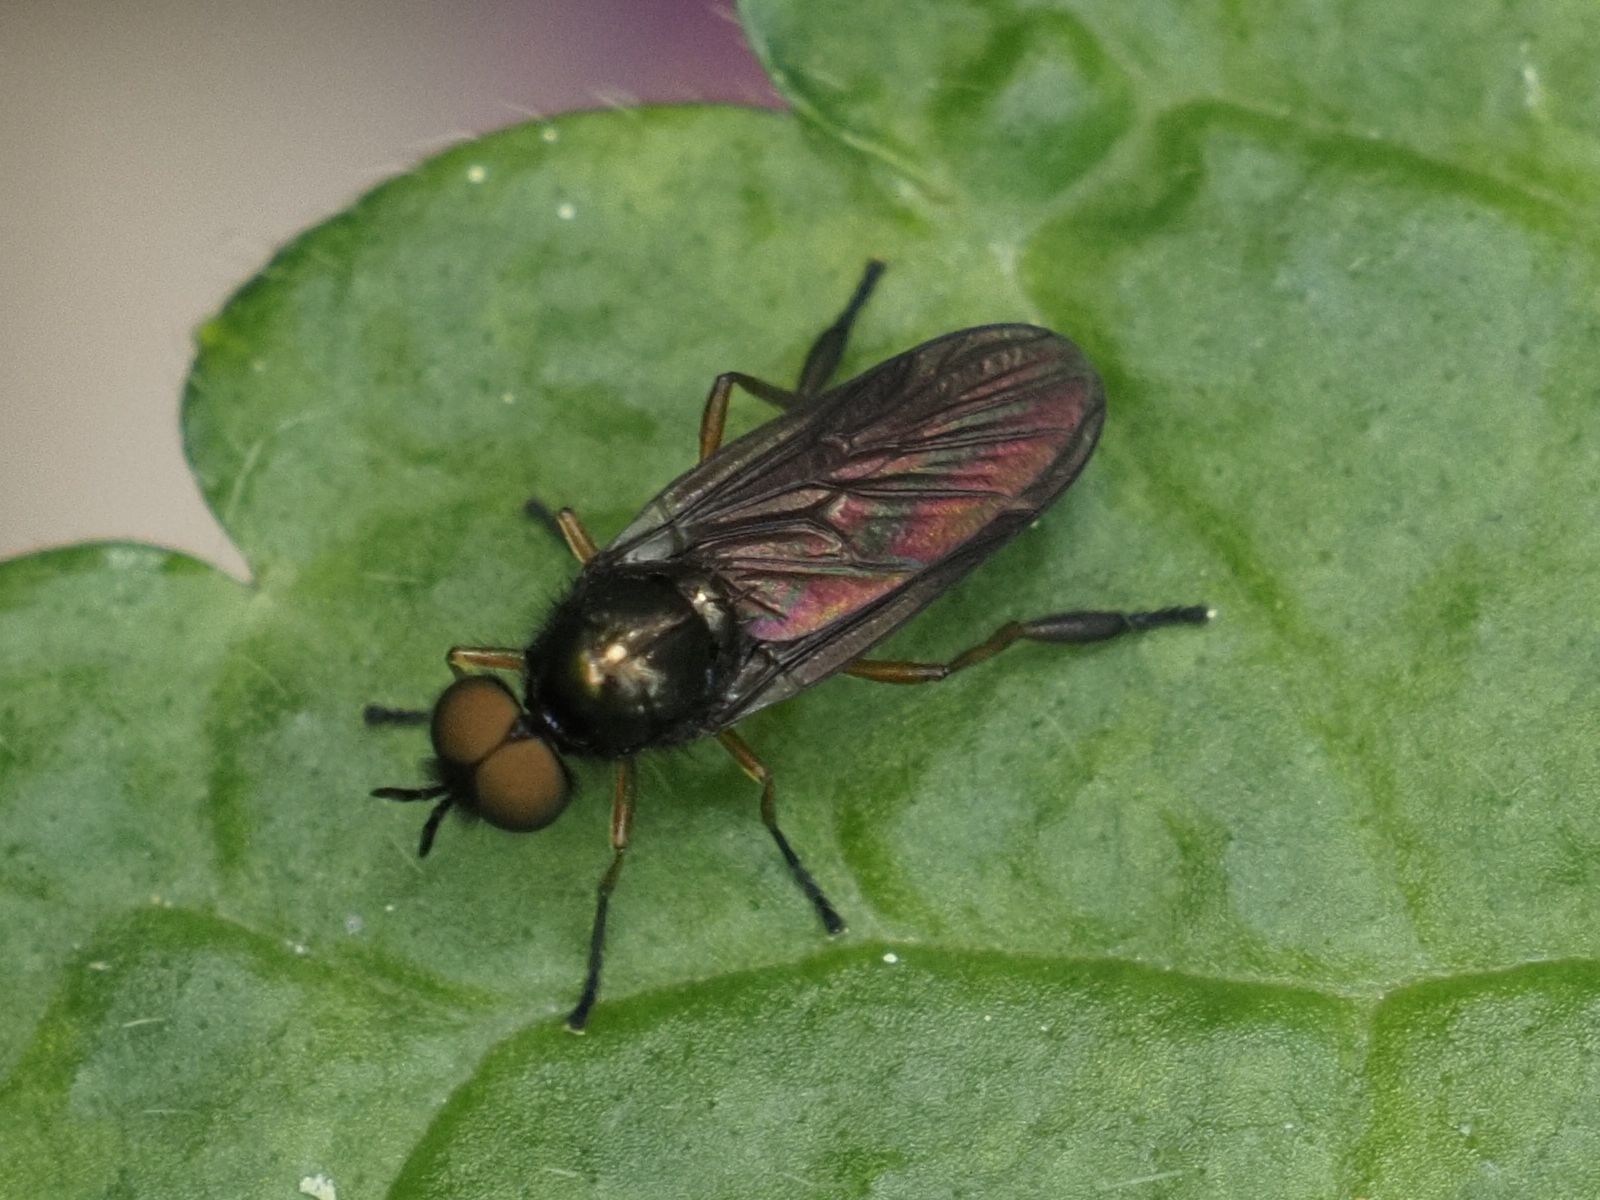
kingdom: Animalia
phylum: Arthropoda
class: Insecta
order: Diptera
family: Stratiomyidae
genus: Beris
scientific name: Beris chalybata
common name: Murky-legged black legionnaire
